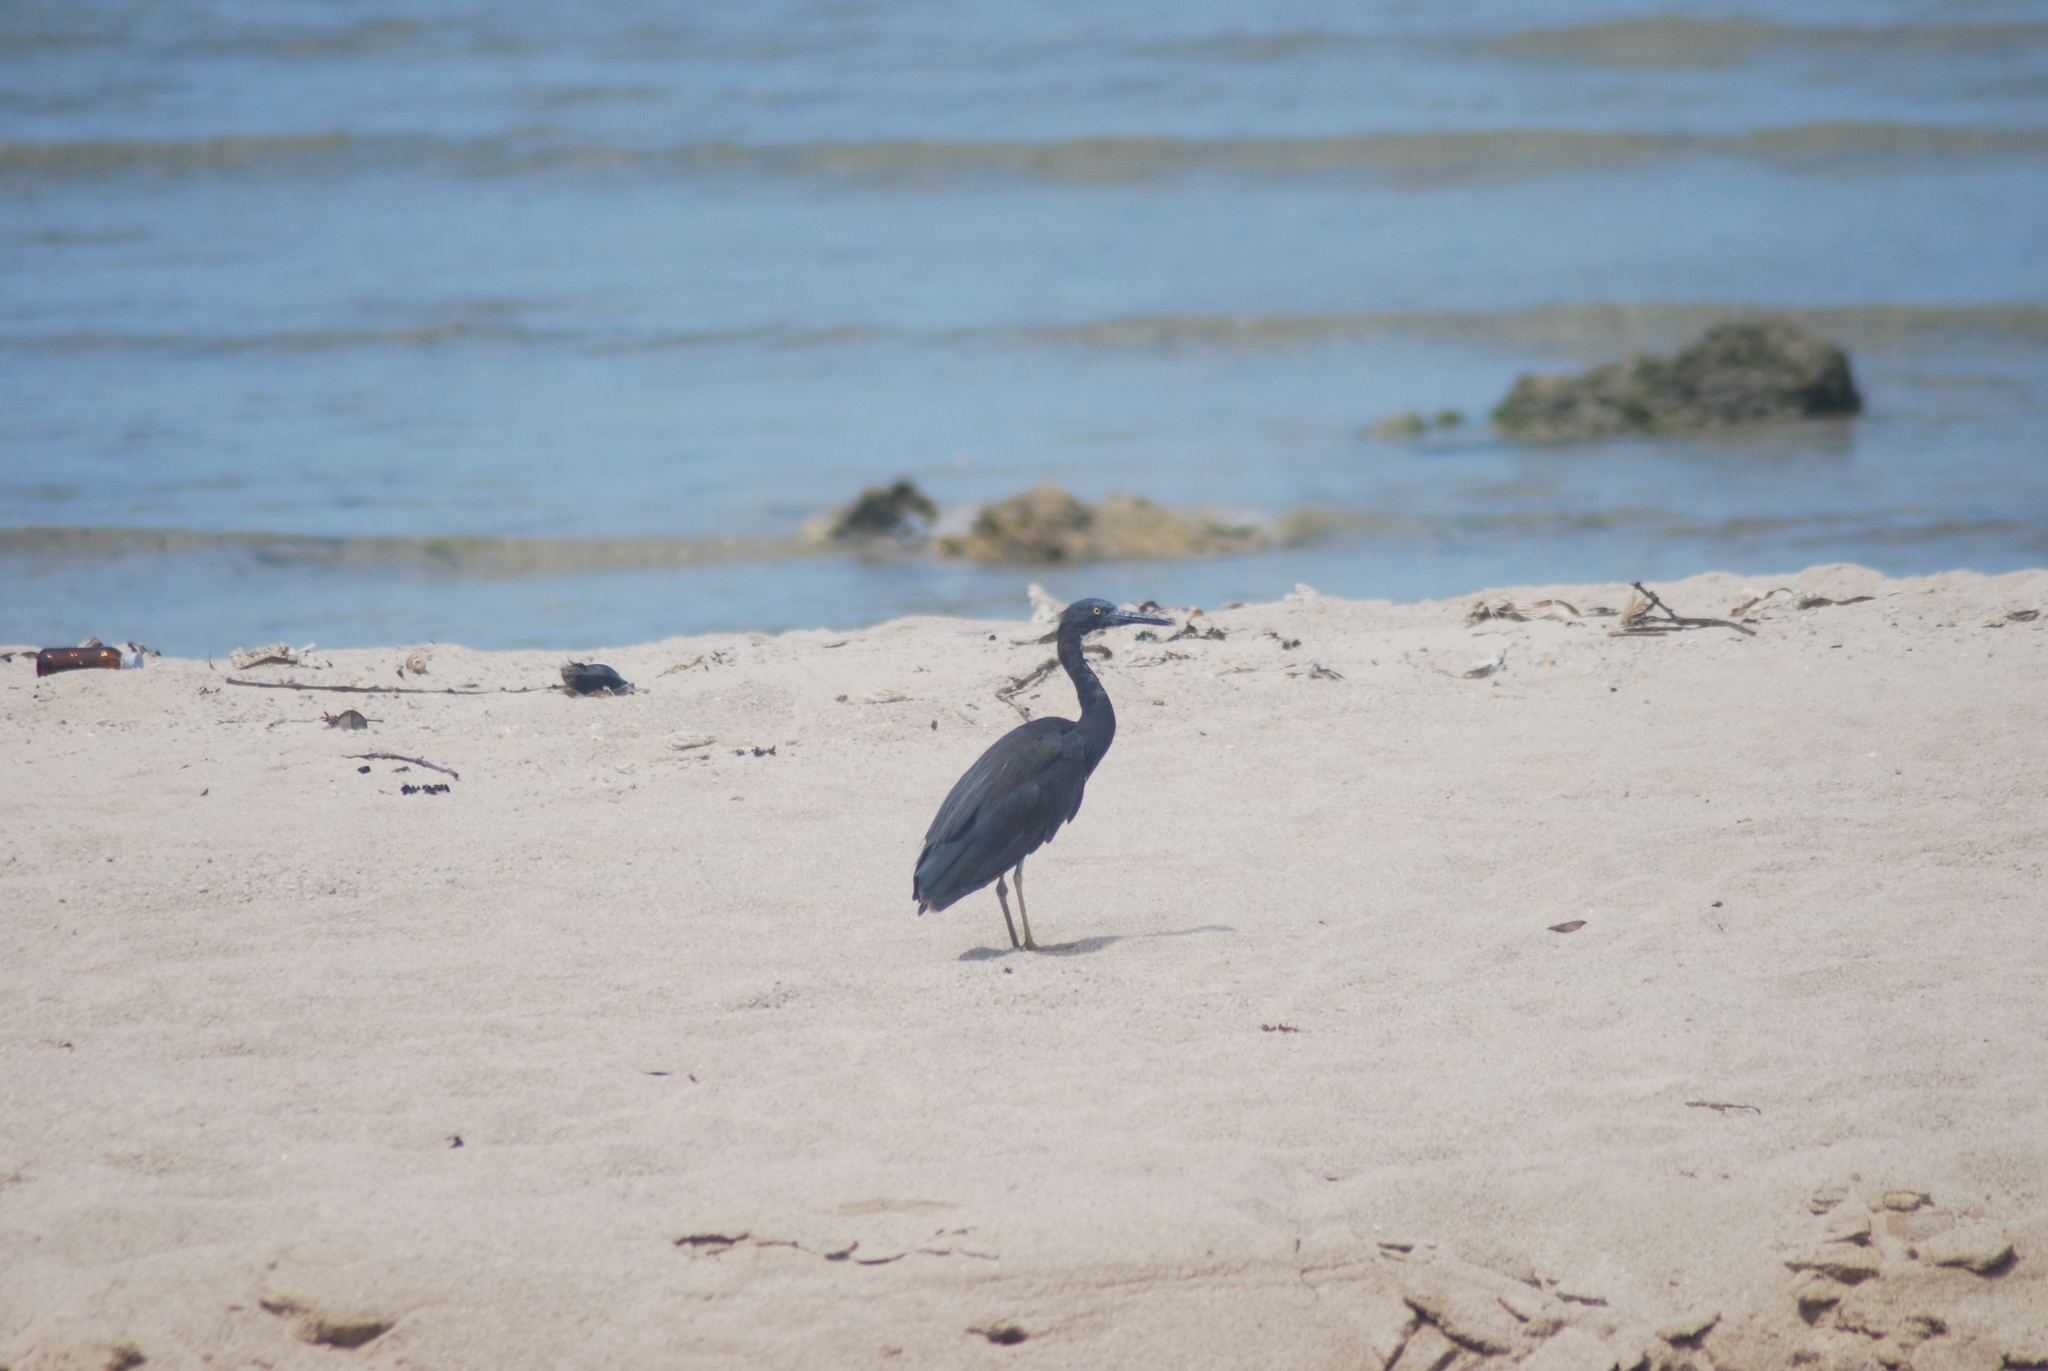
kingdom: Animalia
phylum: Chordata
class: Aves
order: Pelecaniformes
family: Ardeidae
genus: Egretta
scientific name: Egretta sacra
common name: Pacific reef heron
